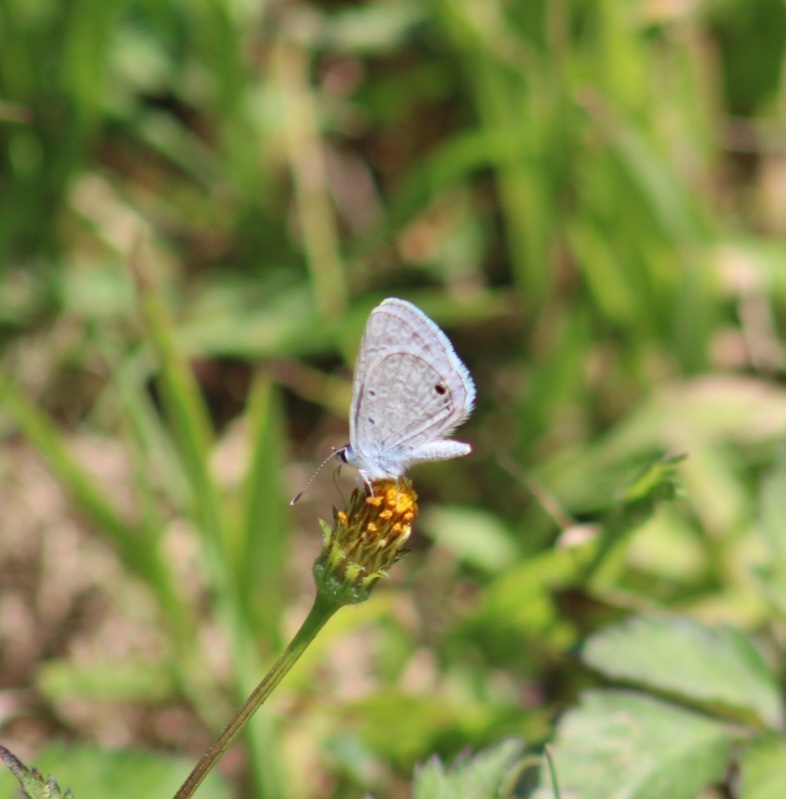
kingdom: Animalia
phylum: Arthropoda
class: Insecta
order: Lepidoptera
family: Lycaenidae
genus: Hemiargus
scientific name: Hemiargus ceraunus
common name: Ceraunus blue
